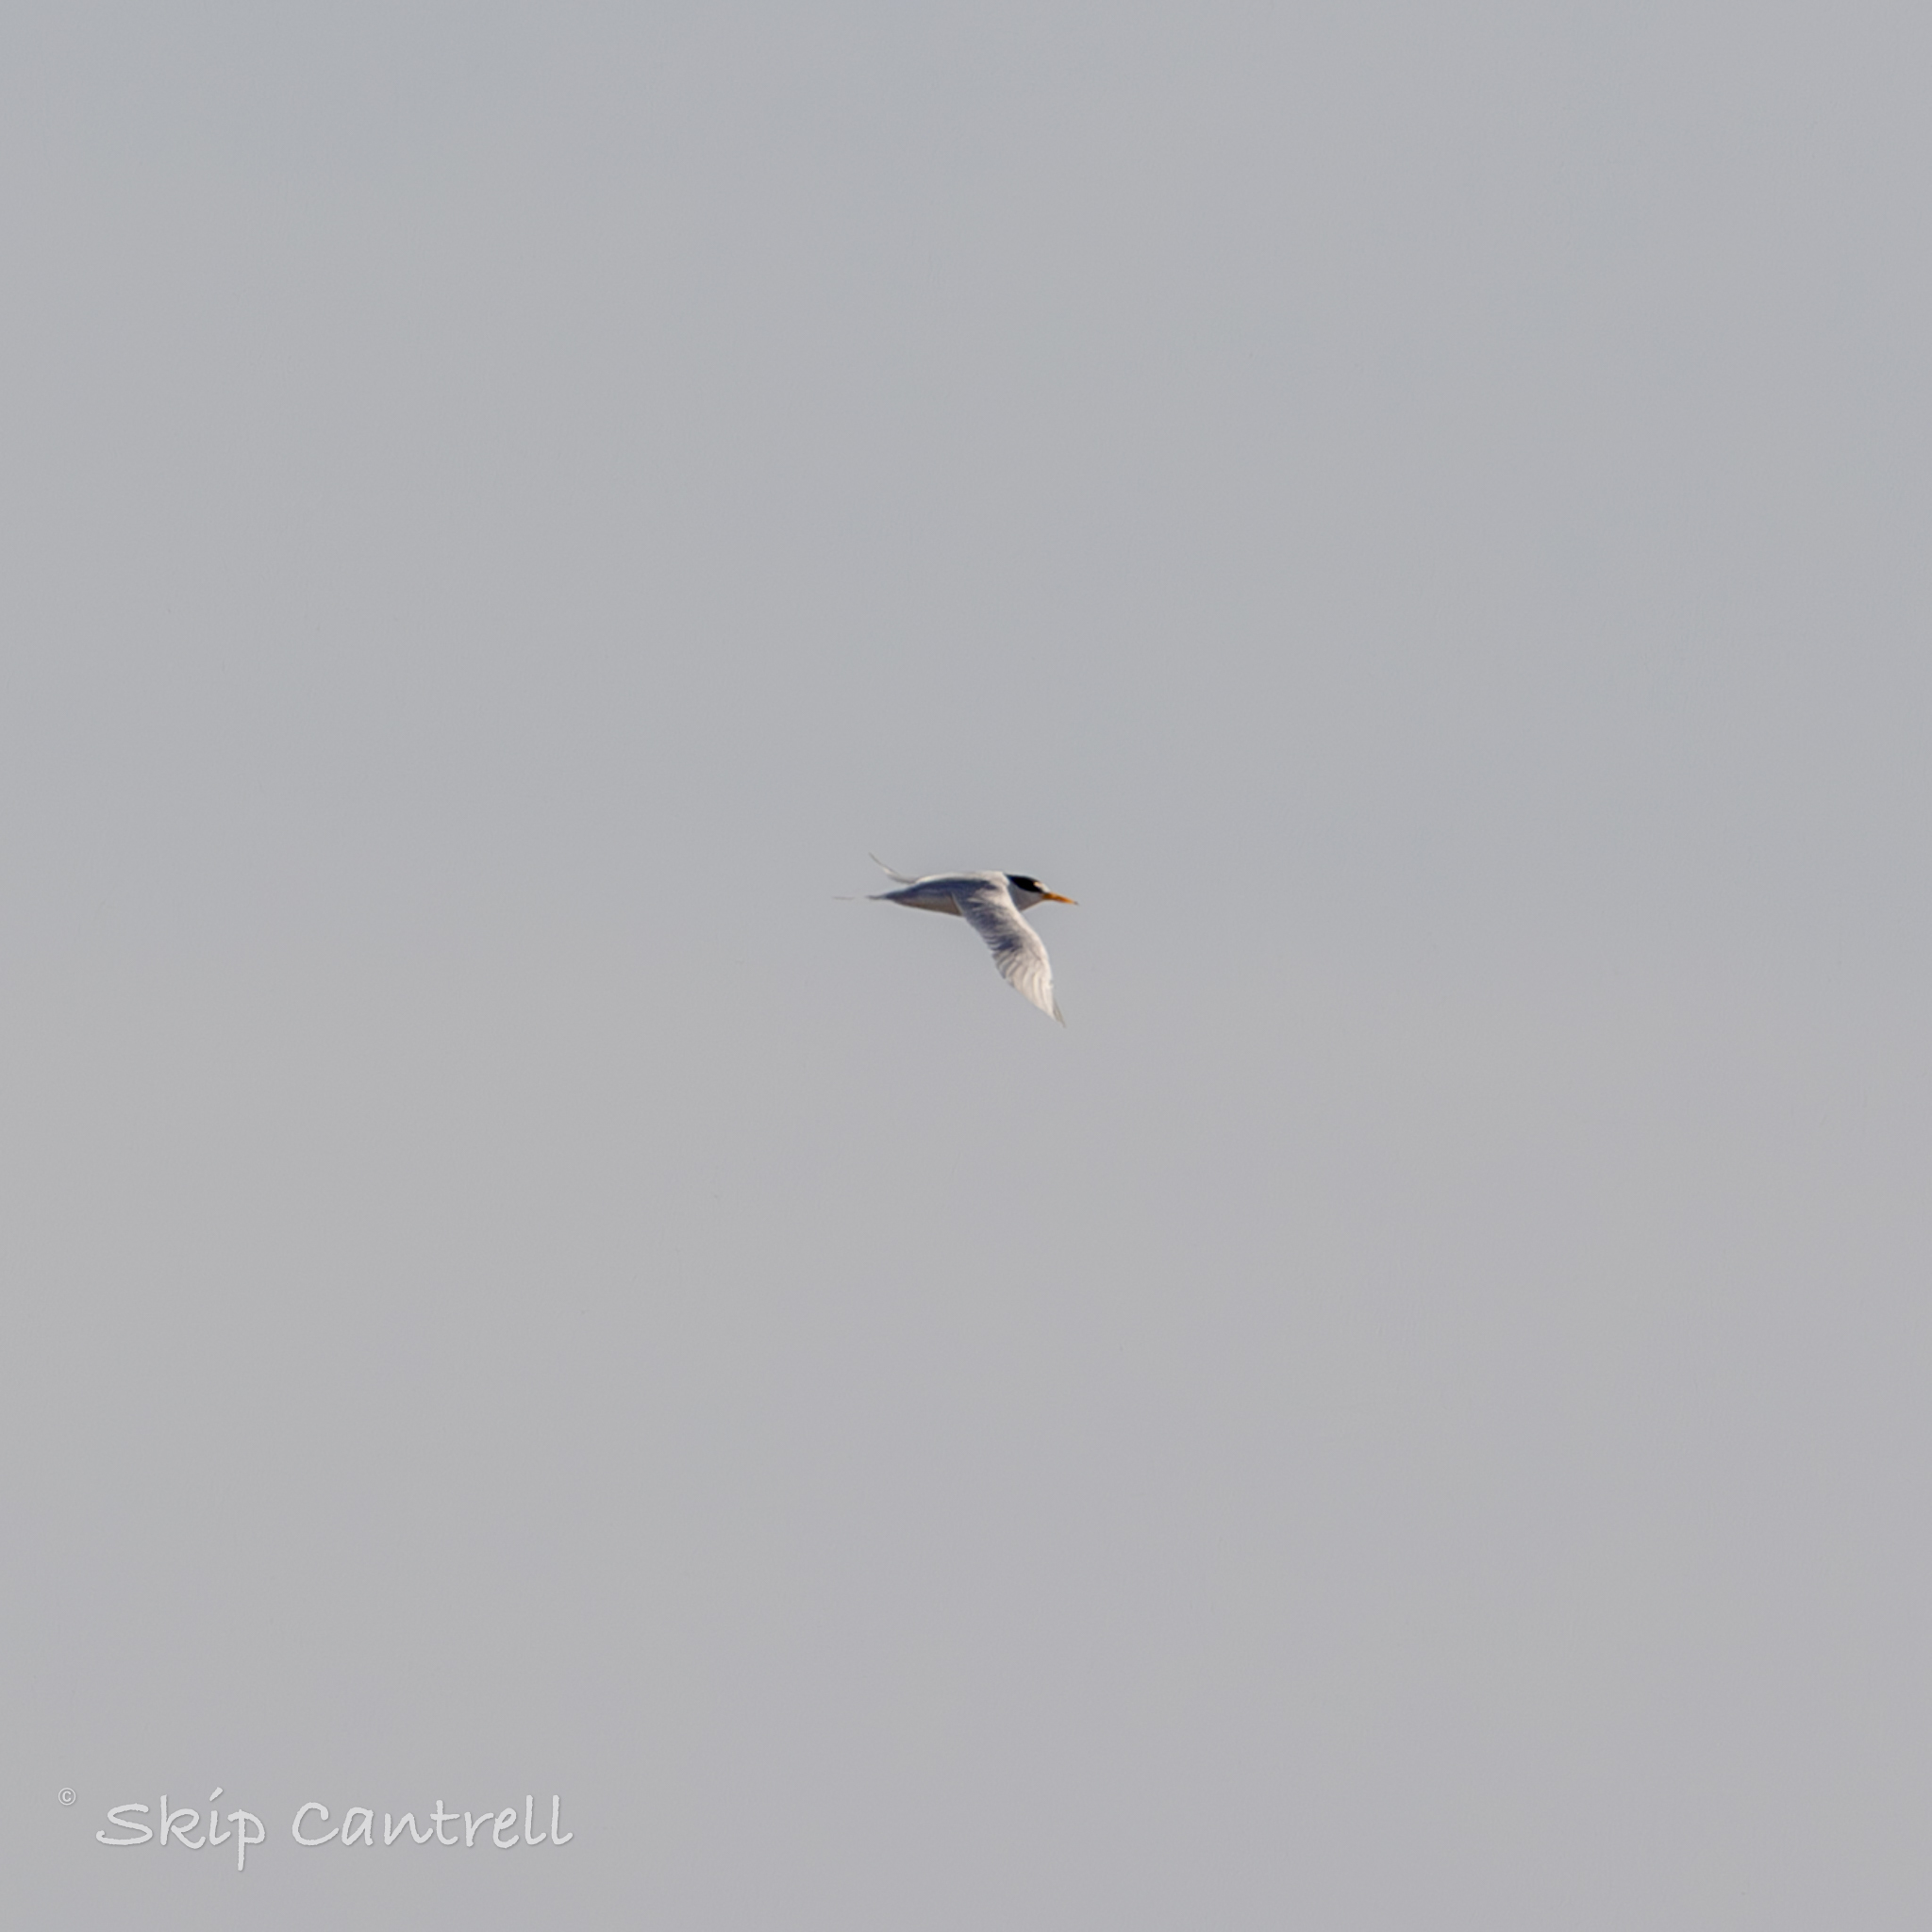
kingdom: Animalia
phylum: Chordata
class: Aves
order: Charadriiformes
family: Laridae
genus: Sternula
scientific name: Sternula antillarum
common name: Least tern
